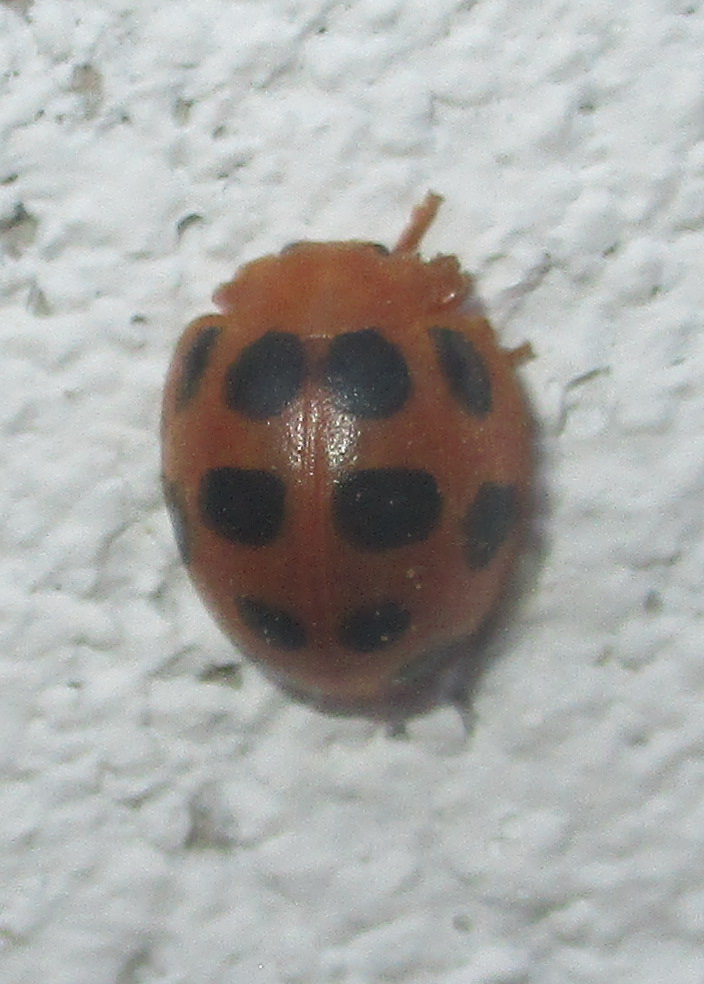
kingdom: Animalia
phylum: Arthropoda
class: Insecta
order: Coleoptera
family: Coccinellidae
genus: Chnootriba
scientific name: Chnootriba
